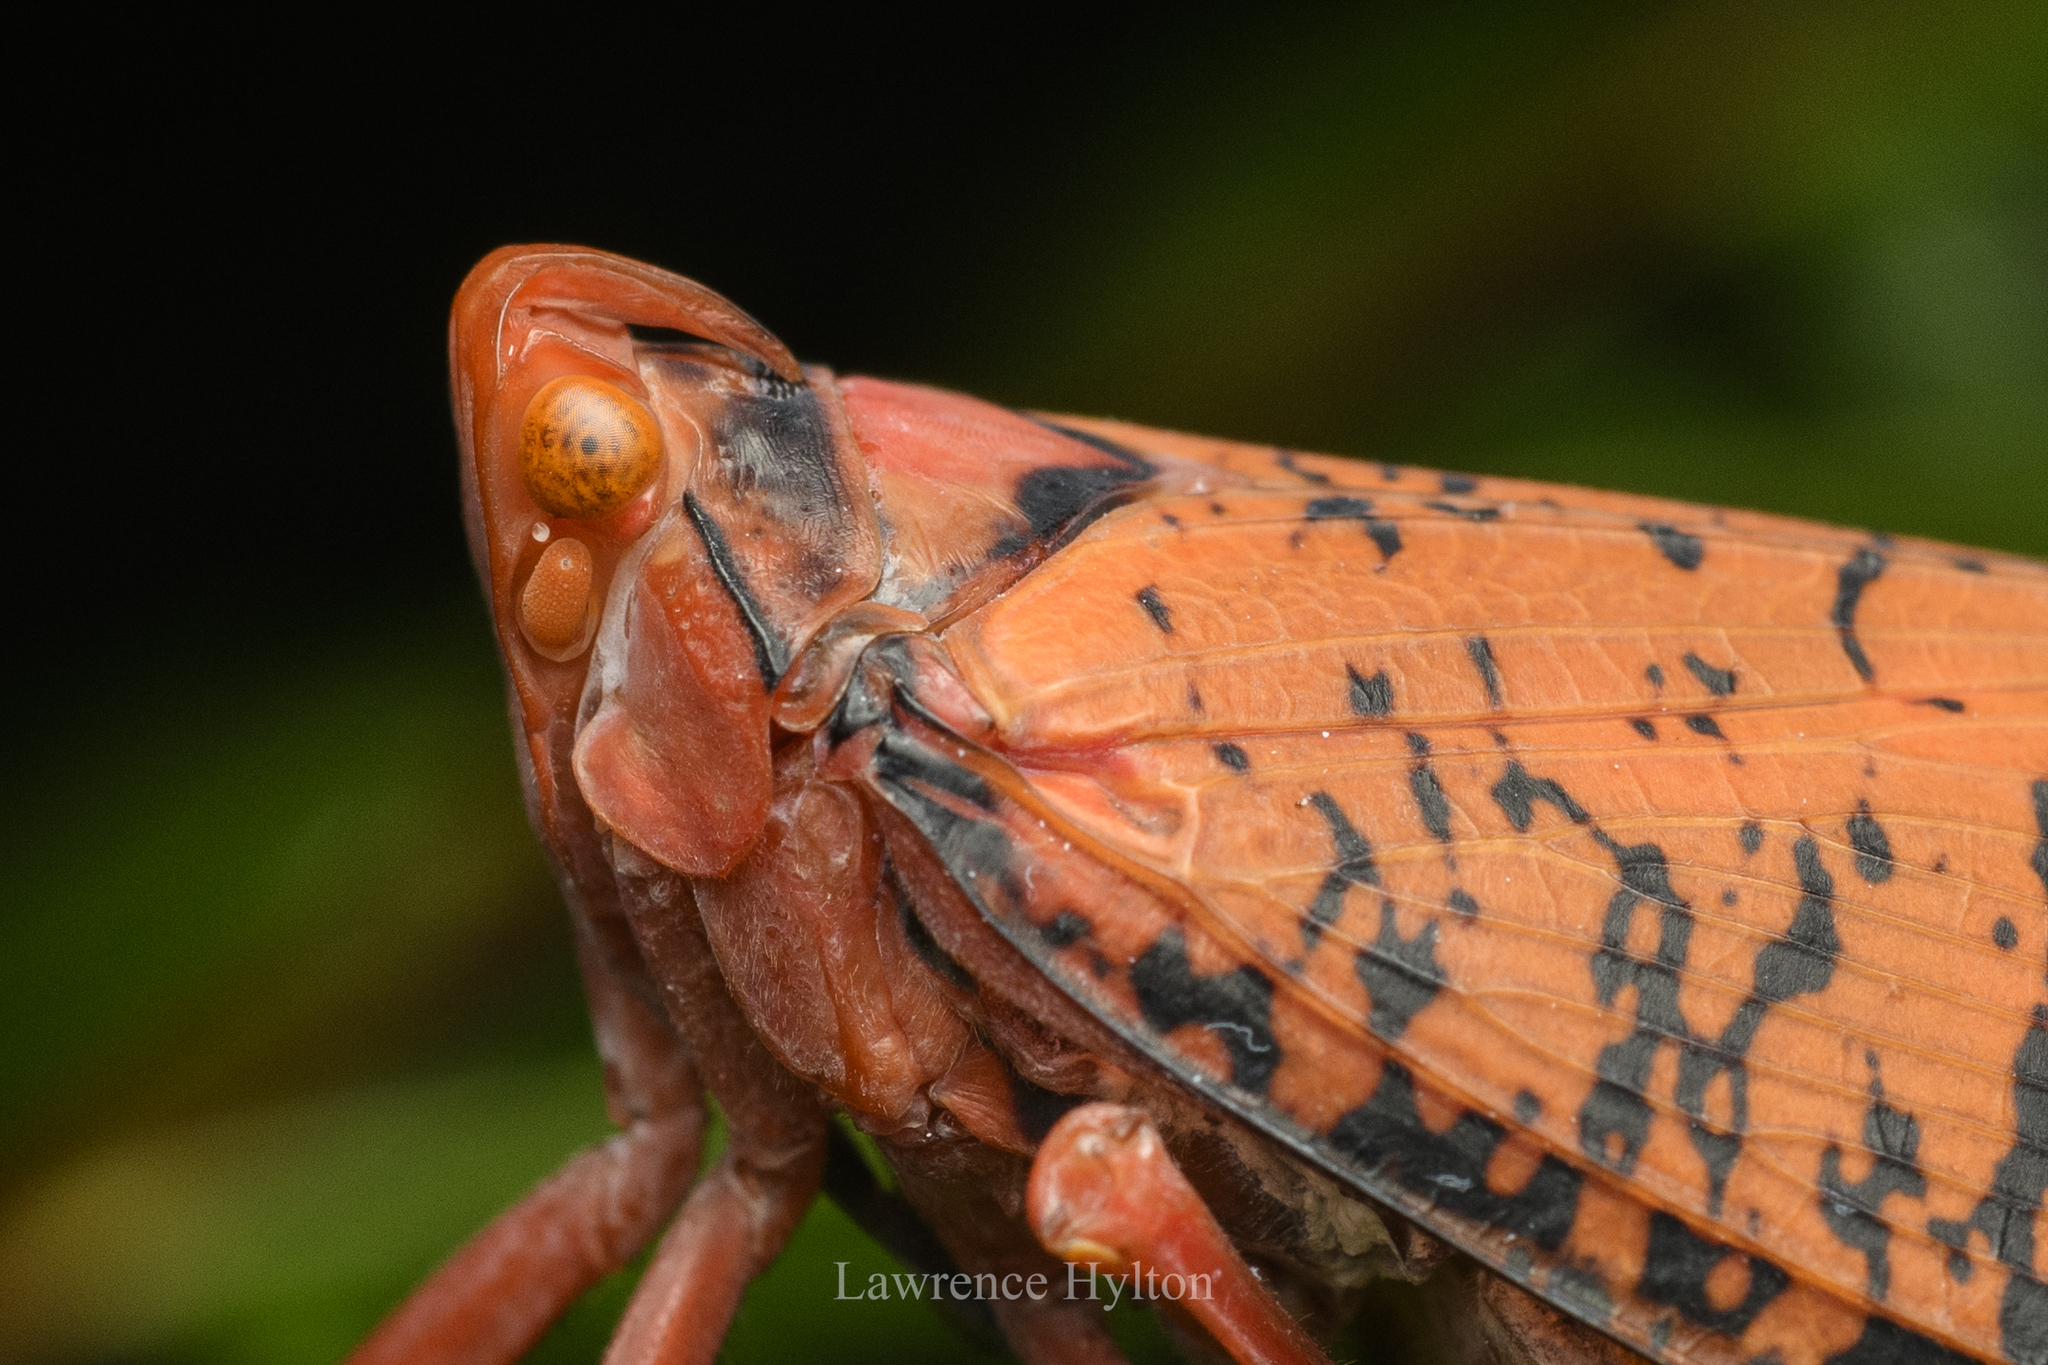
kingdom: Animalia
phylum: Arthropoda
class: Insecta
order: Hemiptera
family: Fulgoridae
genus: Aphaena
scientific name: Aphaena discolor
